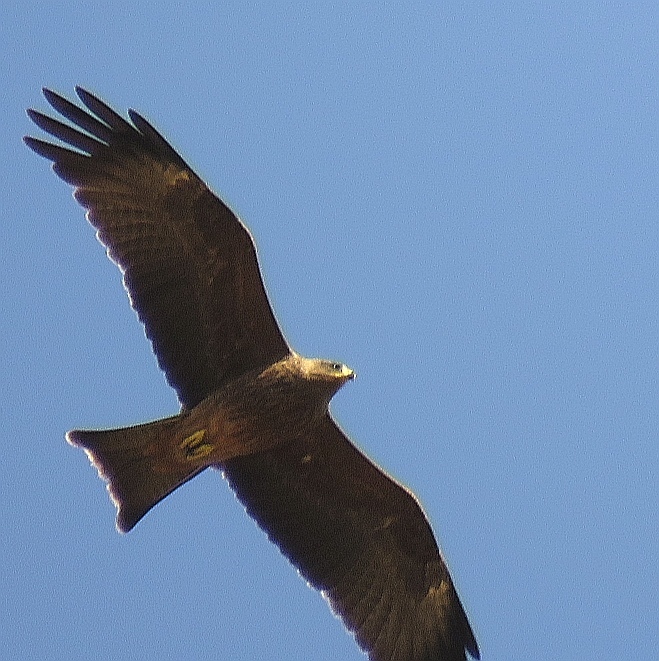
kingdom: Animalia
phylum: Chordata
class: Aves
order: Accipitriformes
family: Accipitridae
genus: Milvus
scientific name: Milvus migrans
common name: Black kite
